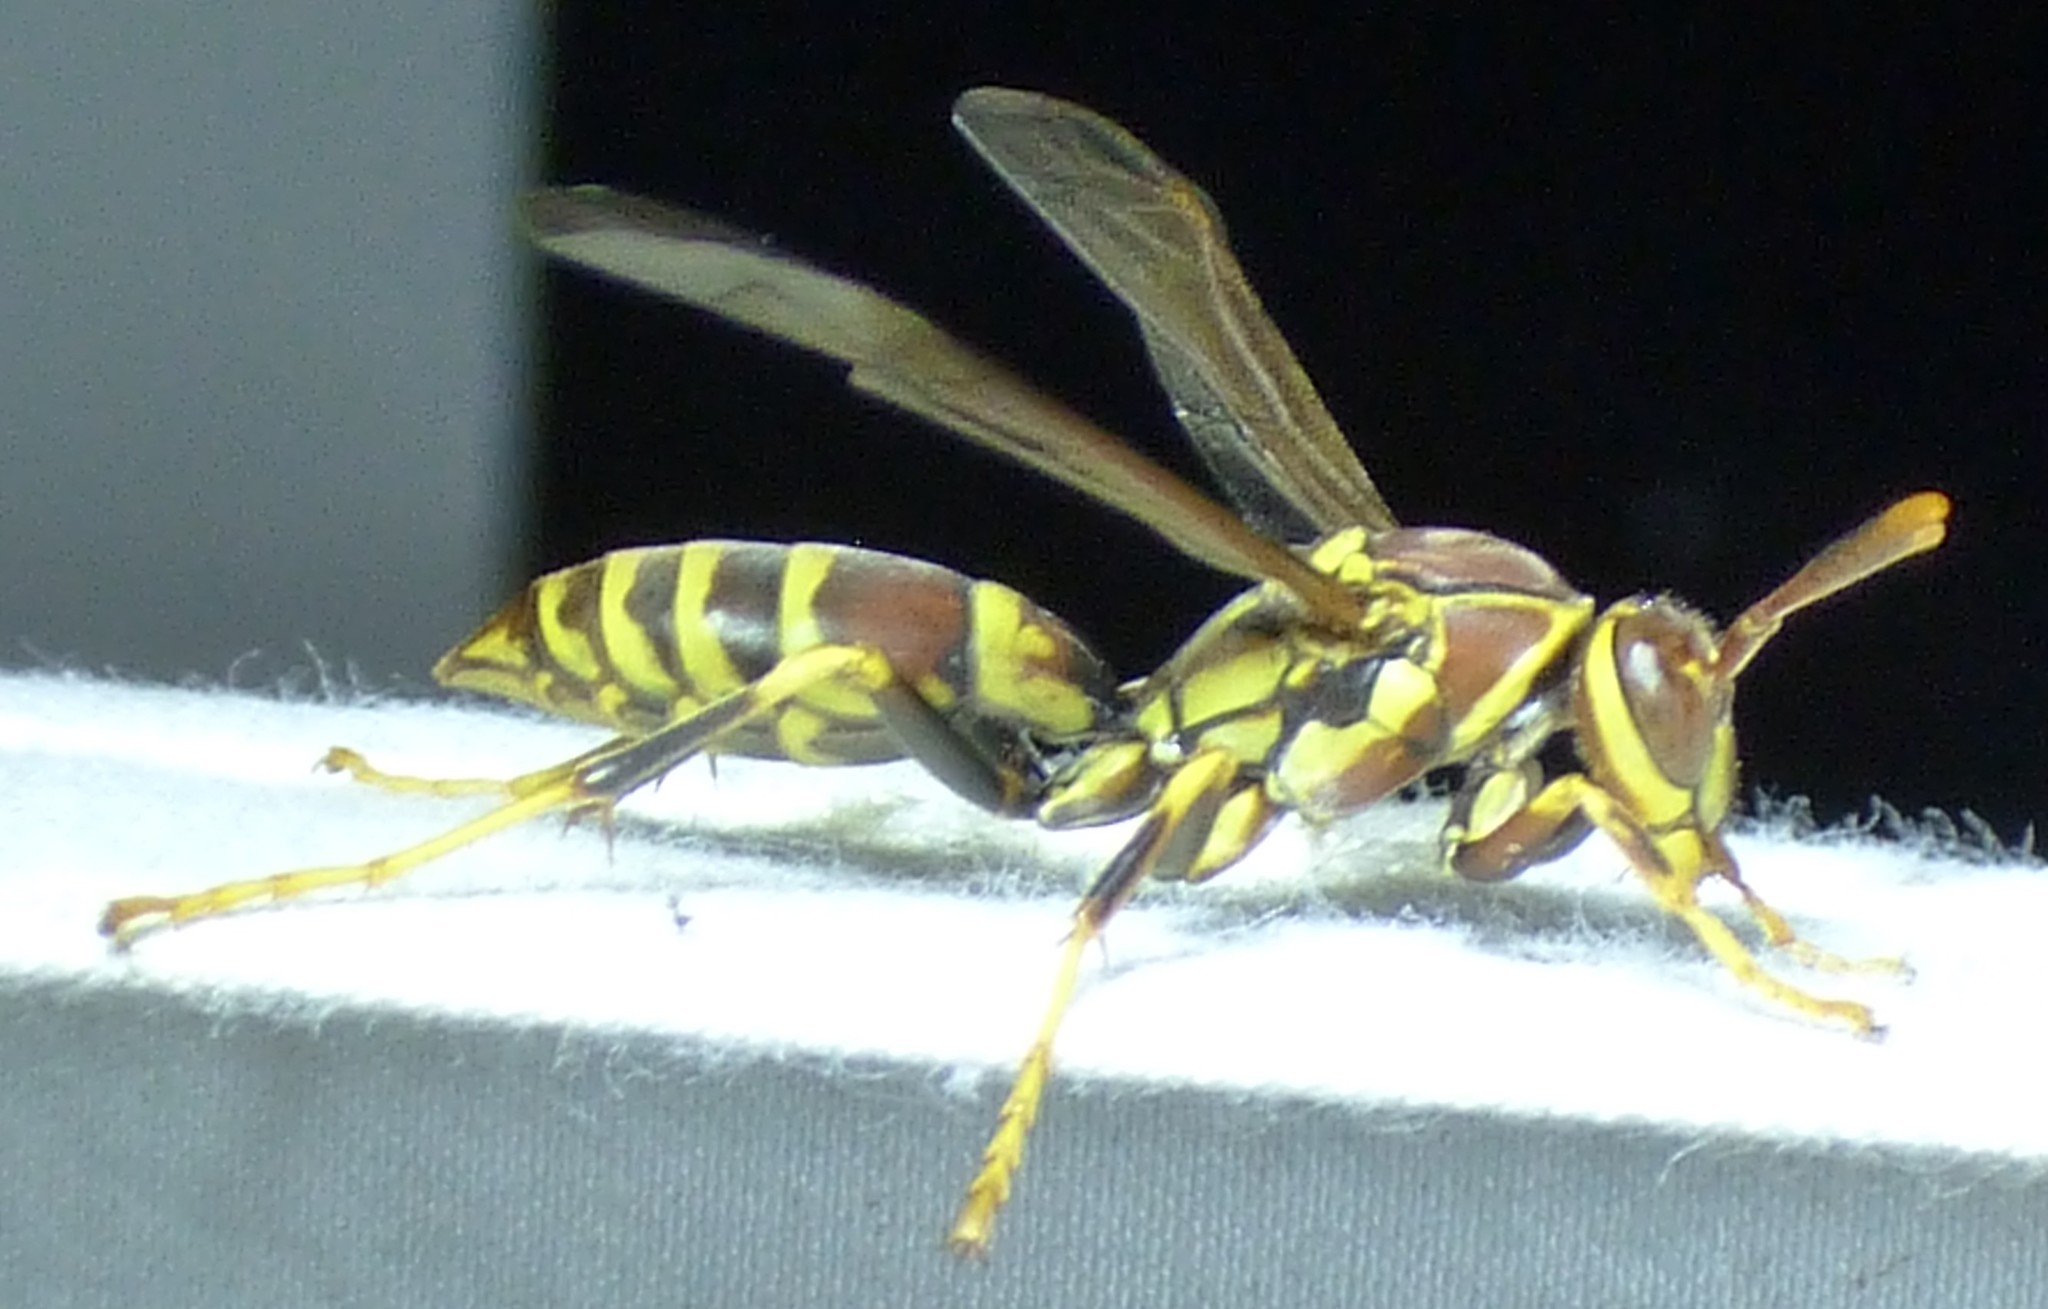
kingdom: Animalia
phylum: Arthropoda
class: Insecta
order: Hymenoptera
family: Eumenidae
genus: Polistes
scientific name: Polistes exclamans
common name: Paper wasp
